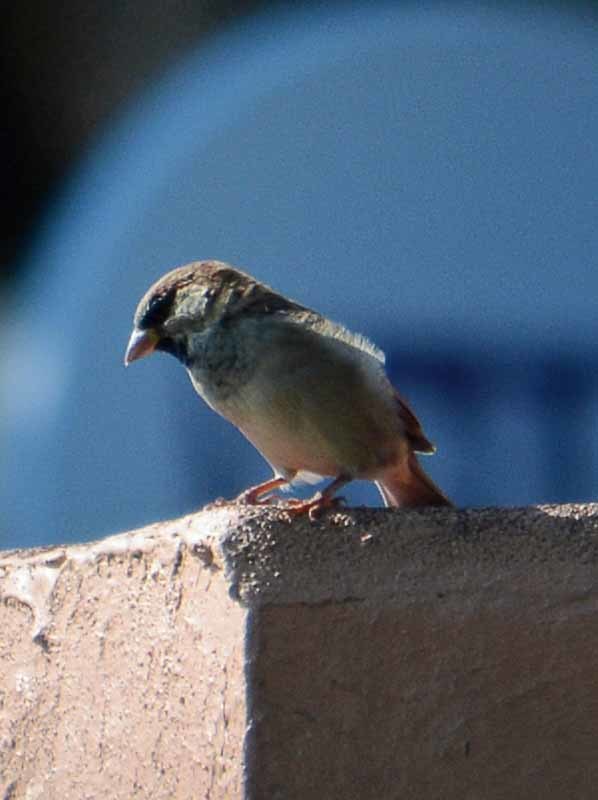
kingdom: Animalia
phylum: Chordata
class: Aves
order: Passeriformes
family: Passeridae
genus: Passer
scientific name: Passer domesticus
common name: House sparrow
